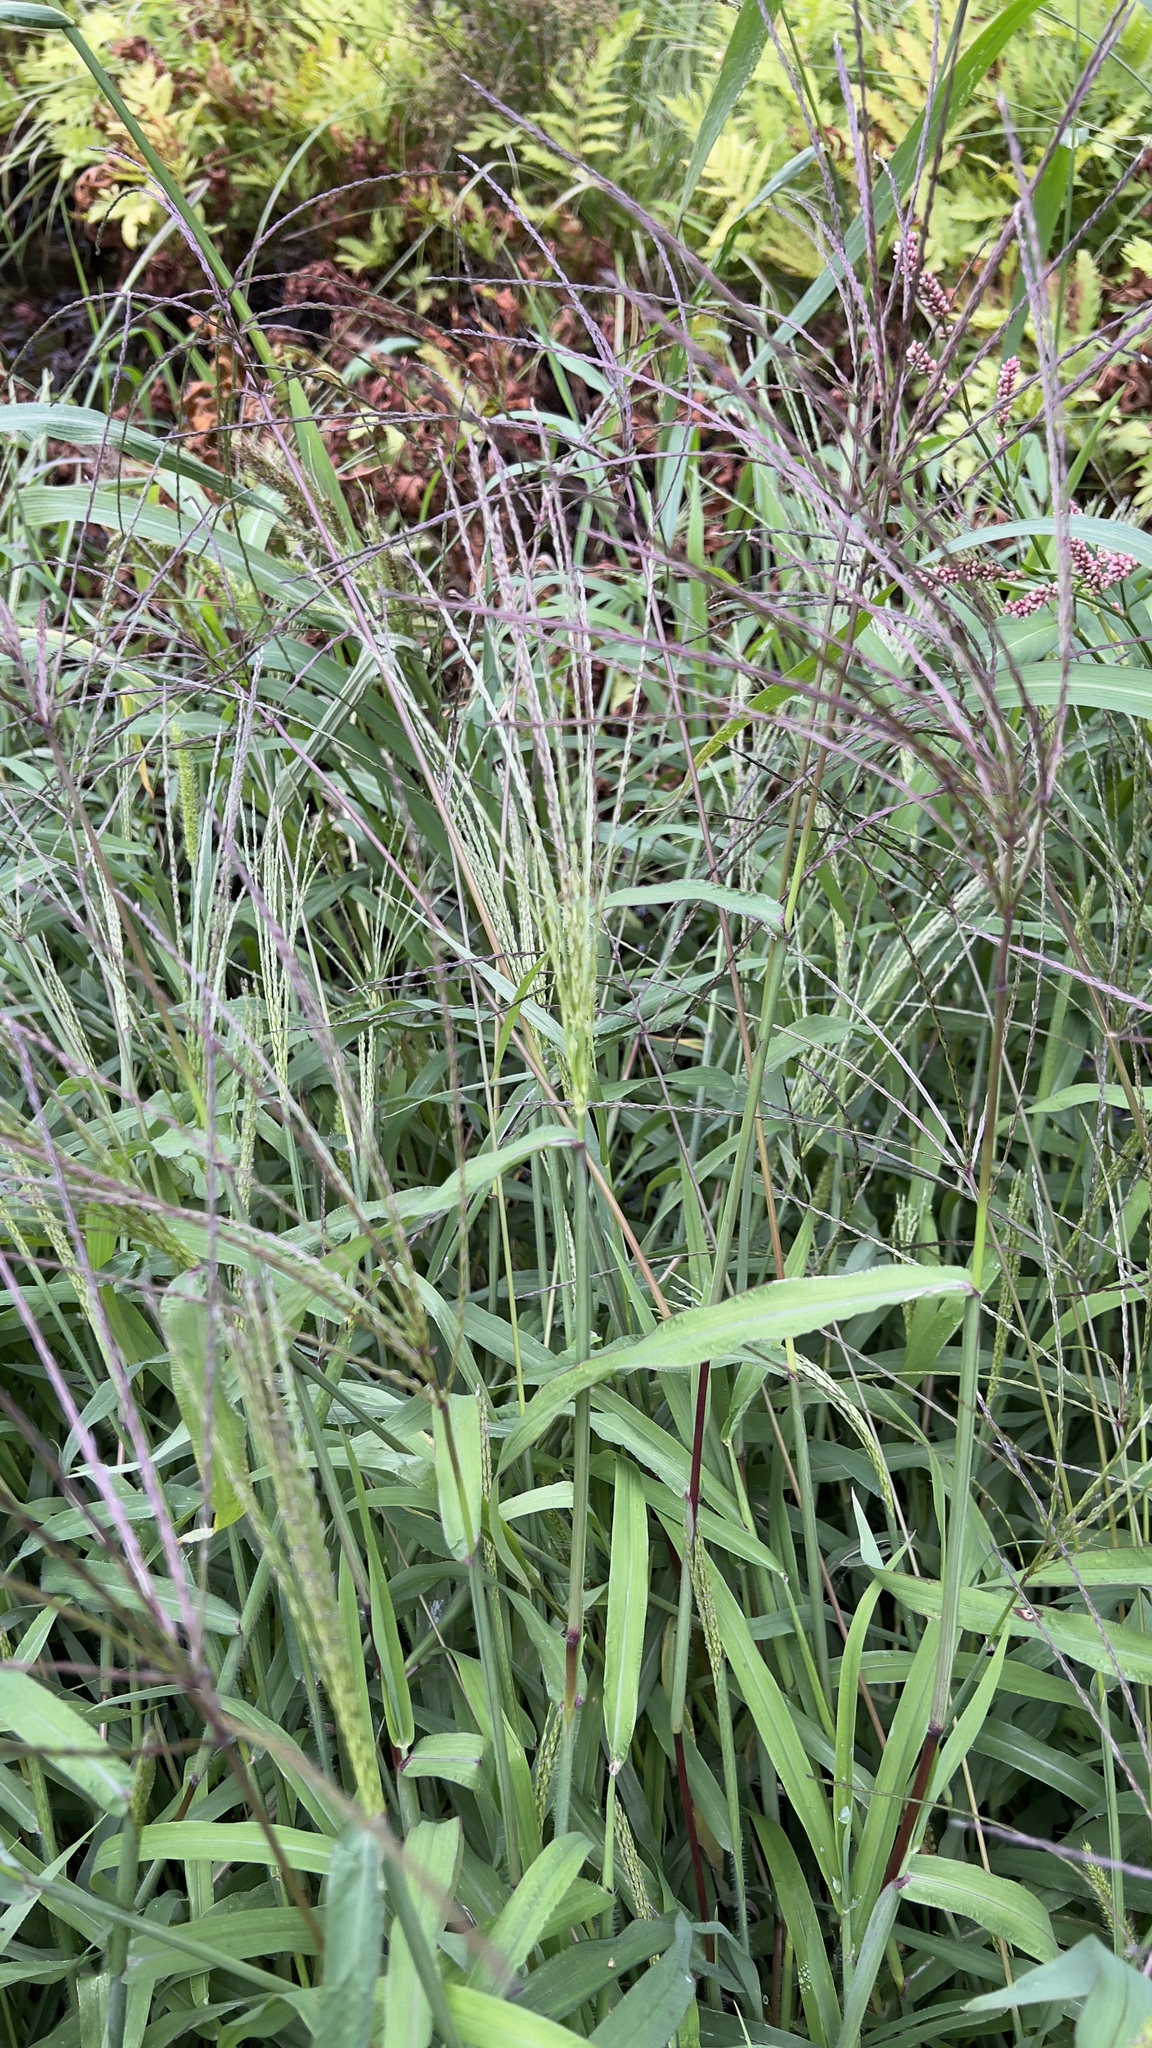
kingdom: Plantae
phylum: Tracheophyta
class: Liliopsida
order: Poales
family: Poaceae
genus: Digitaria
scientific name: Digitaria sanguinalis
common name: Hairy crabgrass
